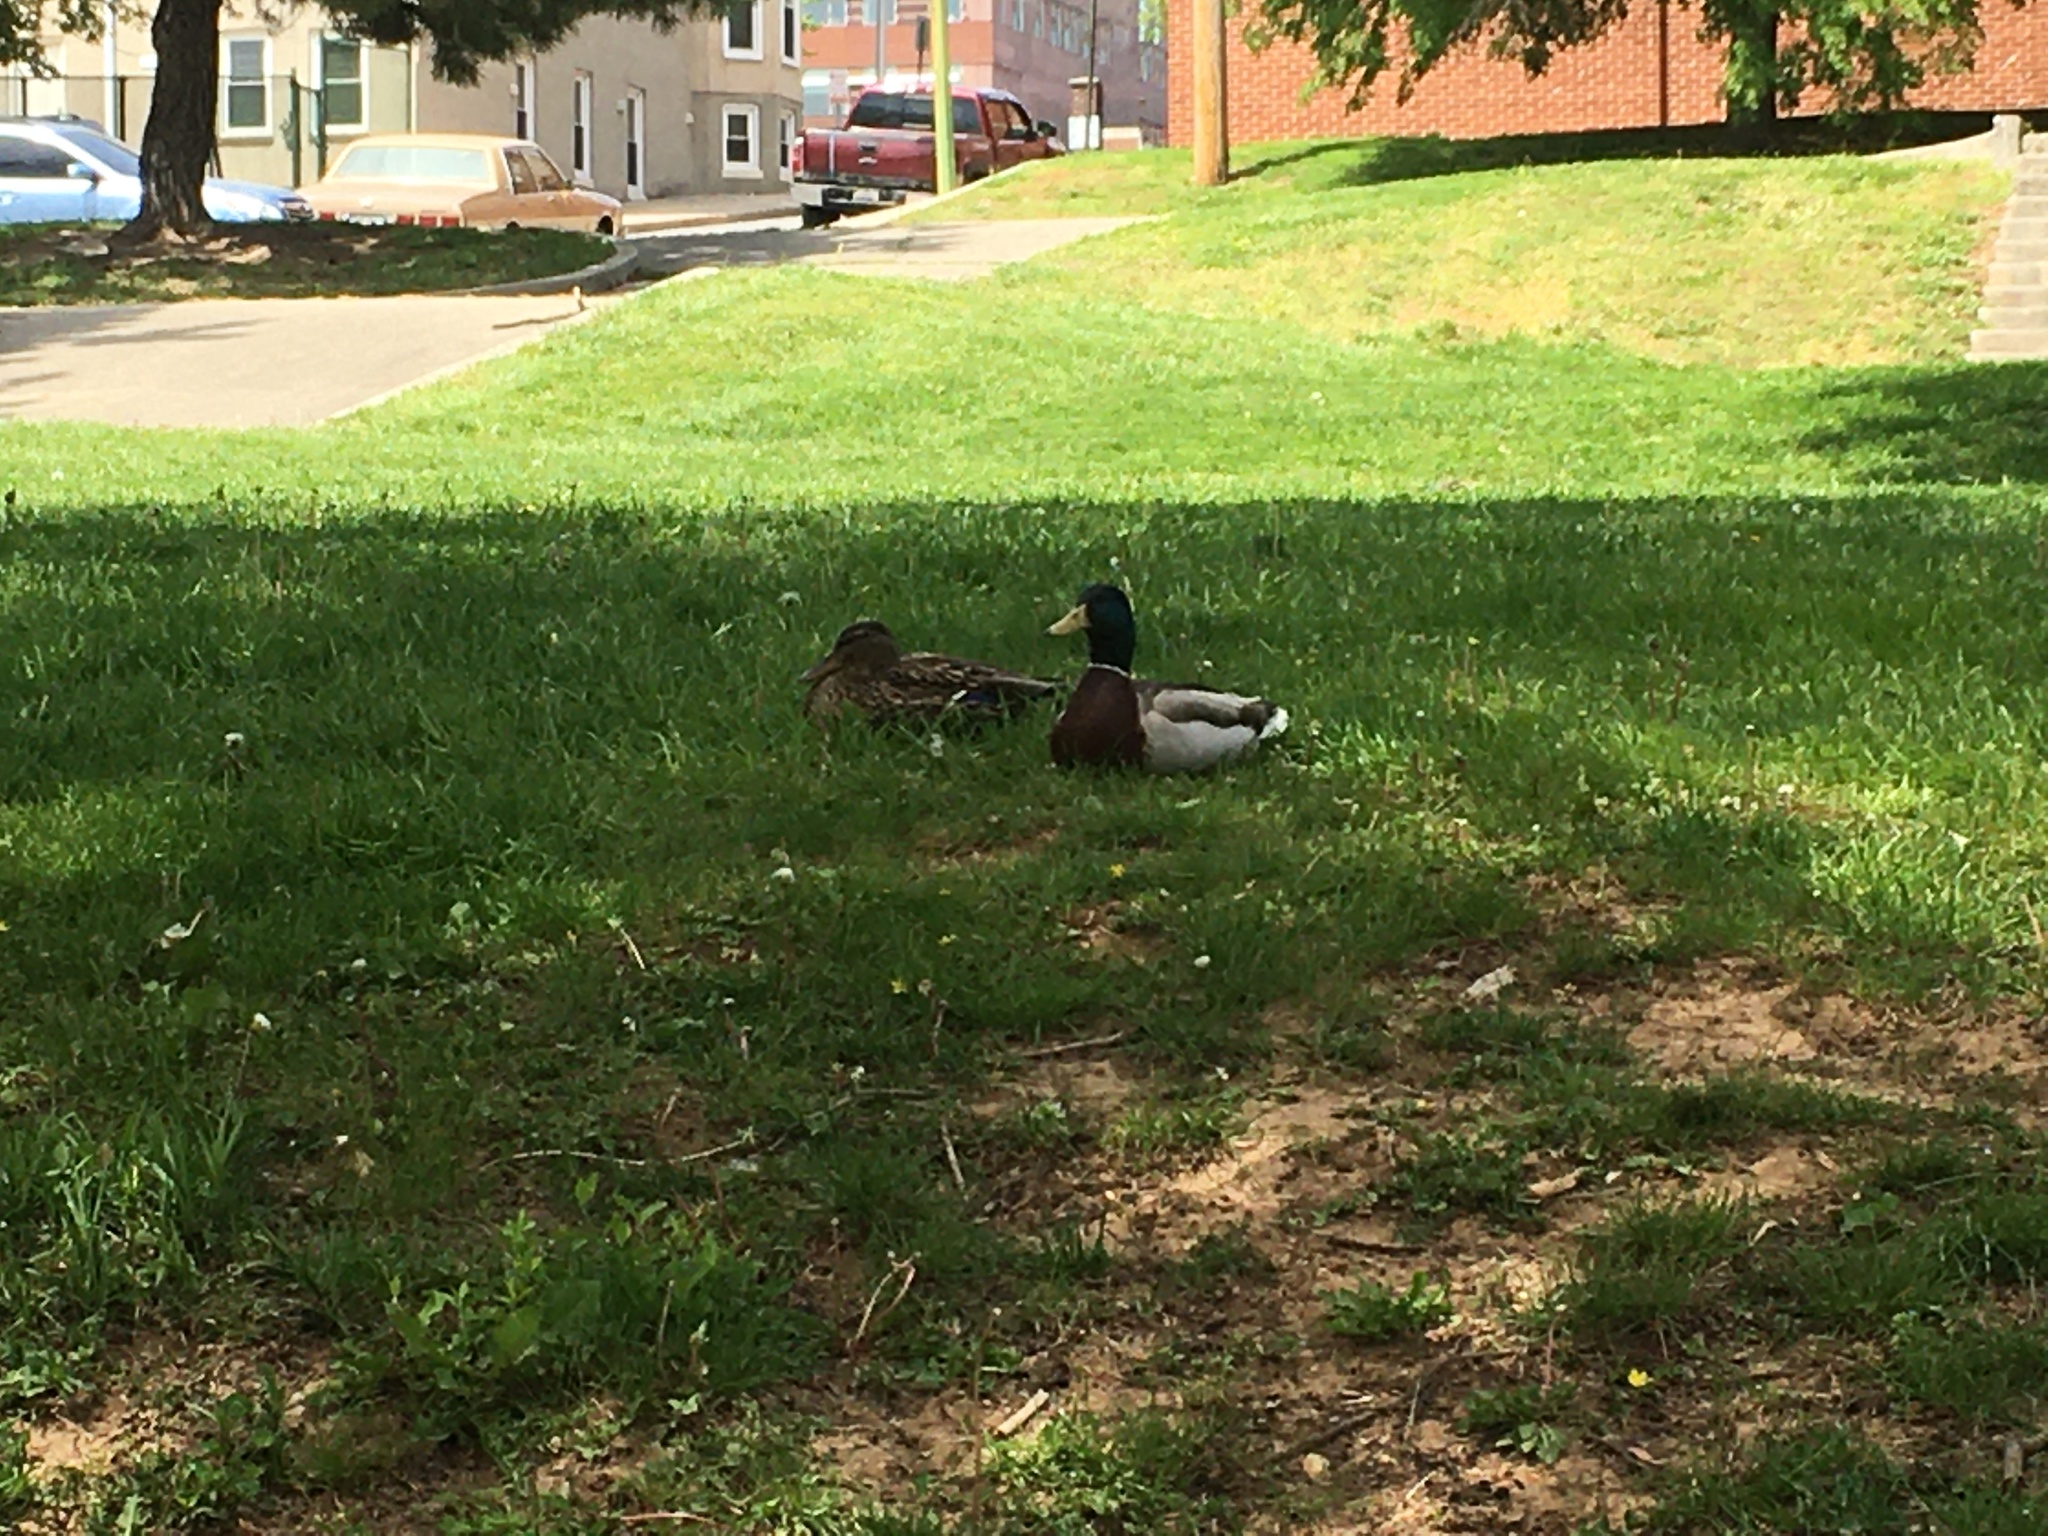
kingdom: Animalia
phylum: Chordata
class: Aves
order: Anseriformes
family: Anatidae
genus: Anas
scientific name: Anas platyrhynchos
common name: Mallard
